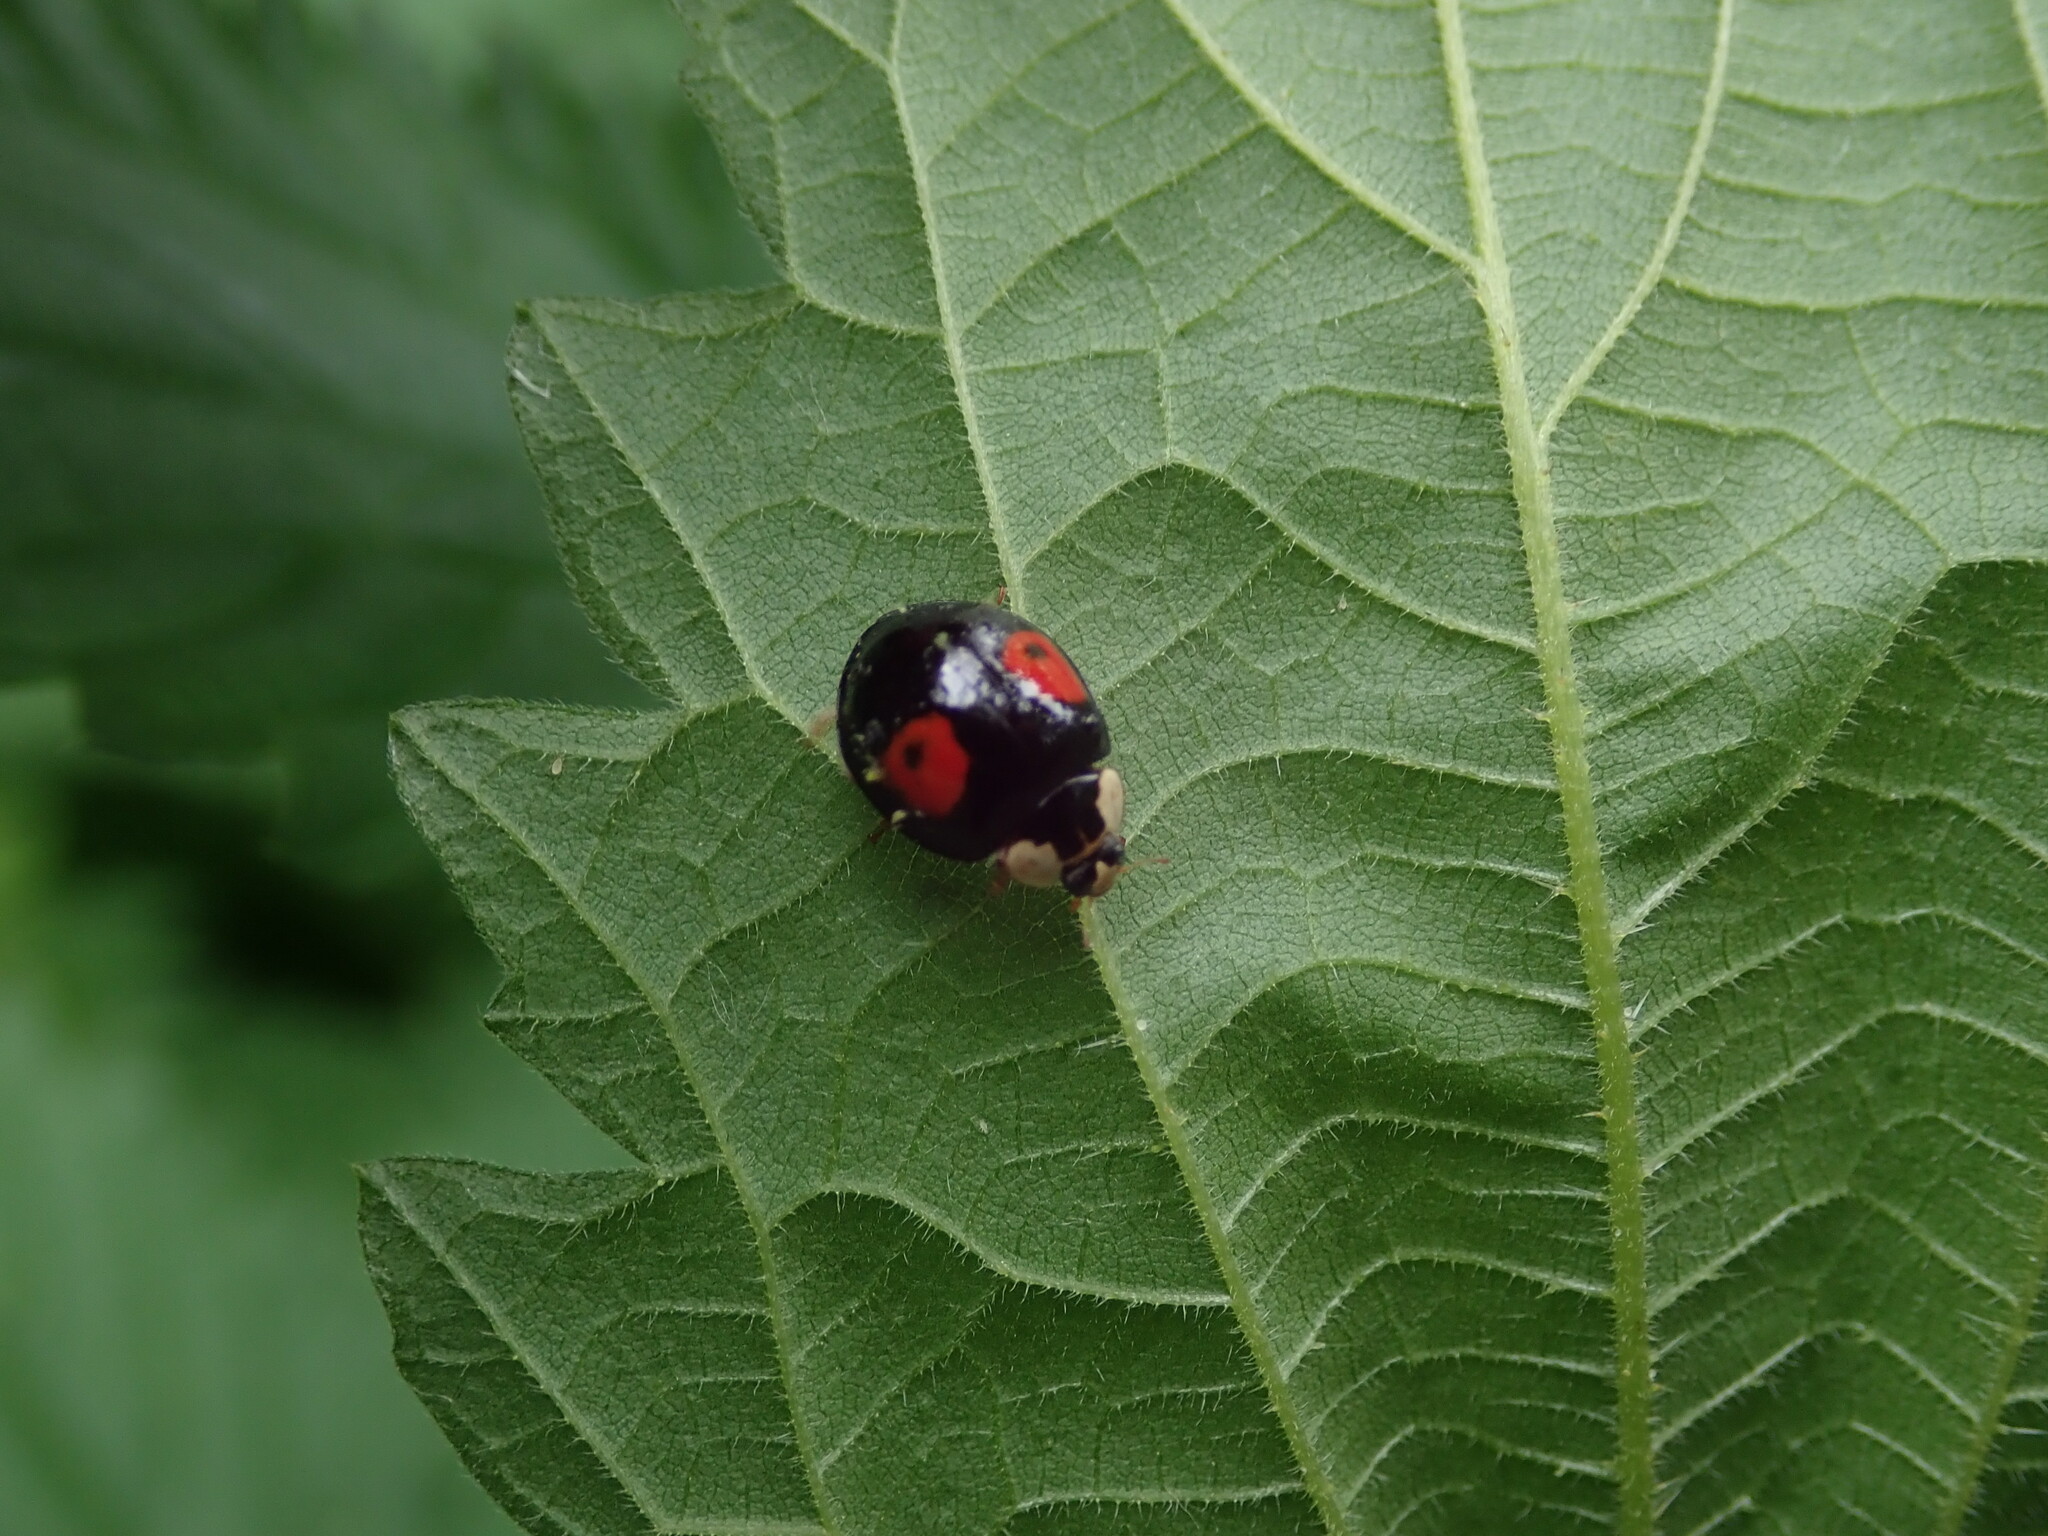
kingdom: Animalia
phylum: Arthropoda
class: Insecta
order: Coleoptera
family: Coccinellidae
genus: Harmonia
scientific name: Harmonia axyridis
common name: Harlequin ladybird
